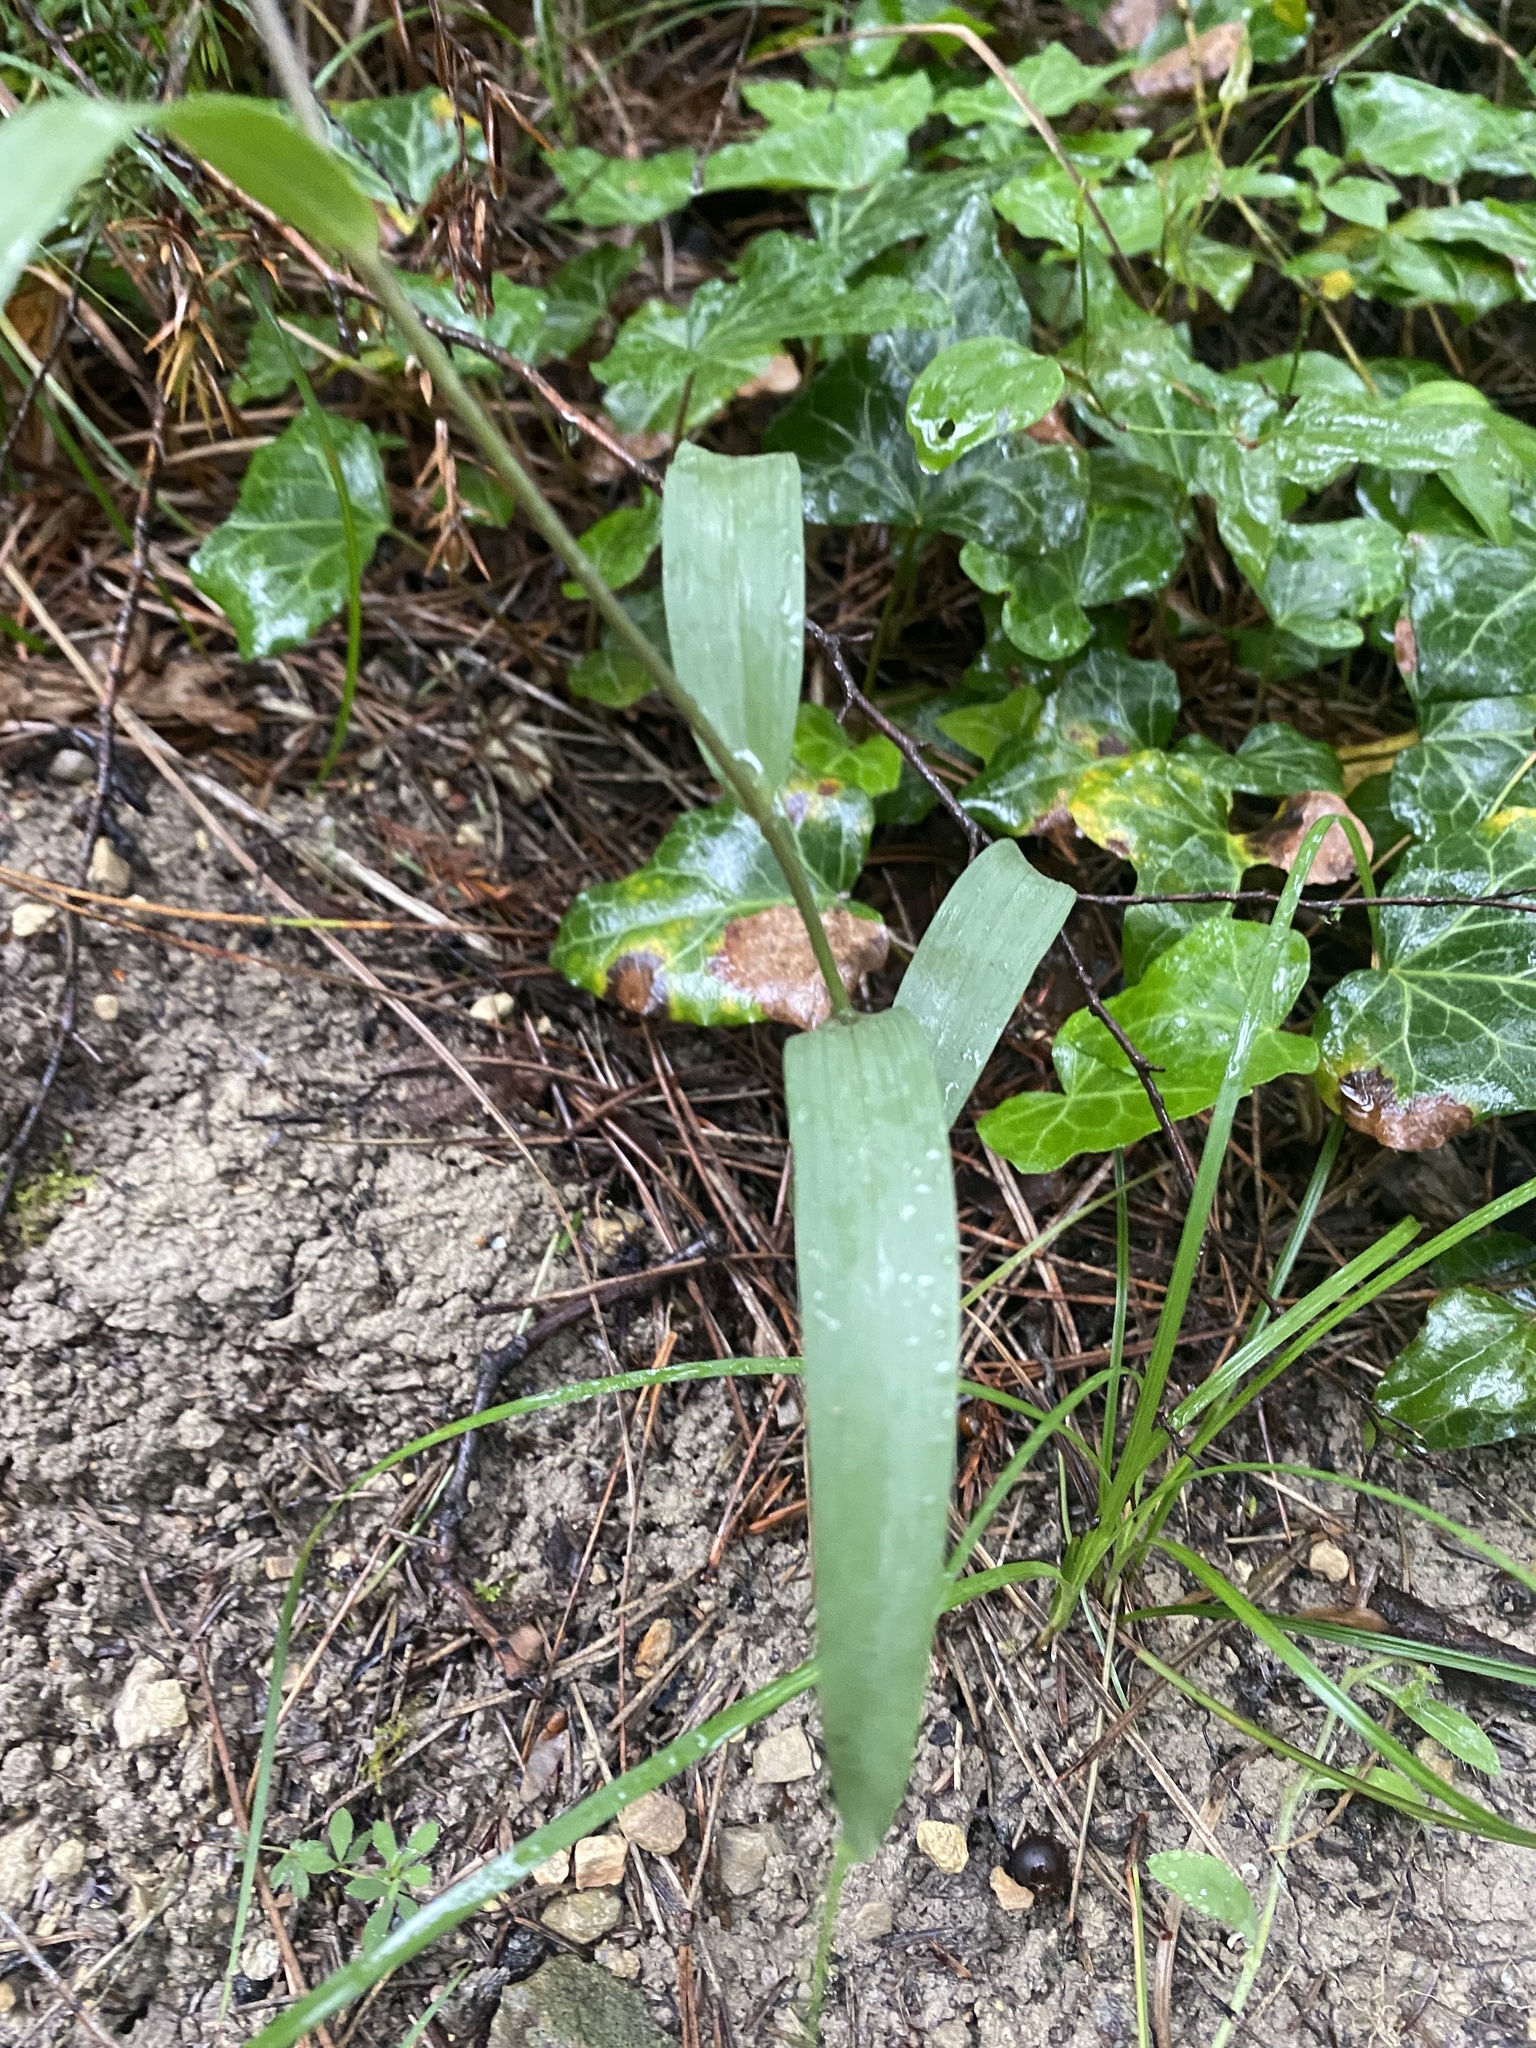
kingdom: Plantae
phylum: Tracheophyta
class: Liliopsida
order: Asparagales
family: Orchidaceae
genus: Cephalanthera
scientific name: Cephalanthera rubra
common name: Red helleborine
